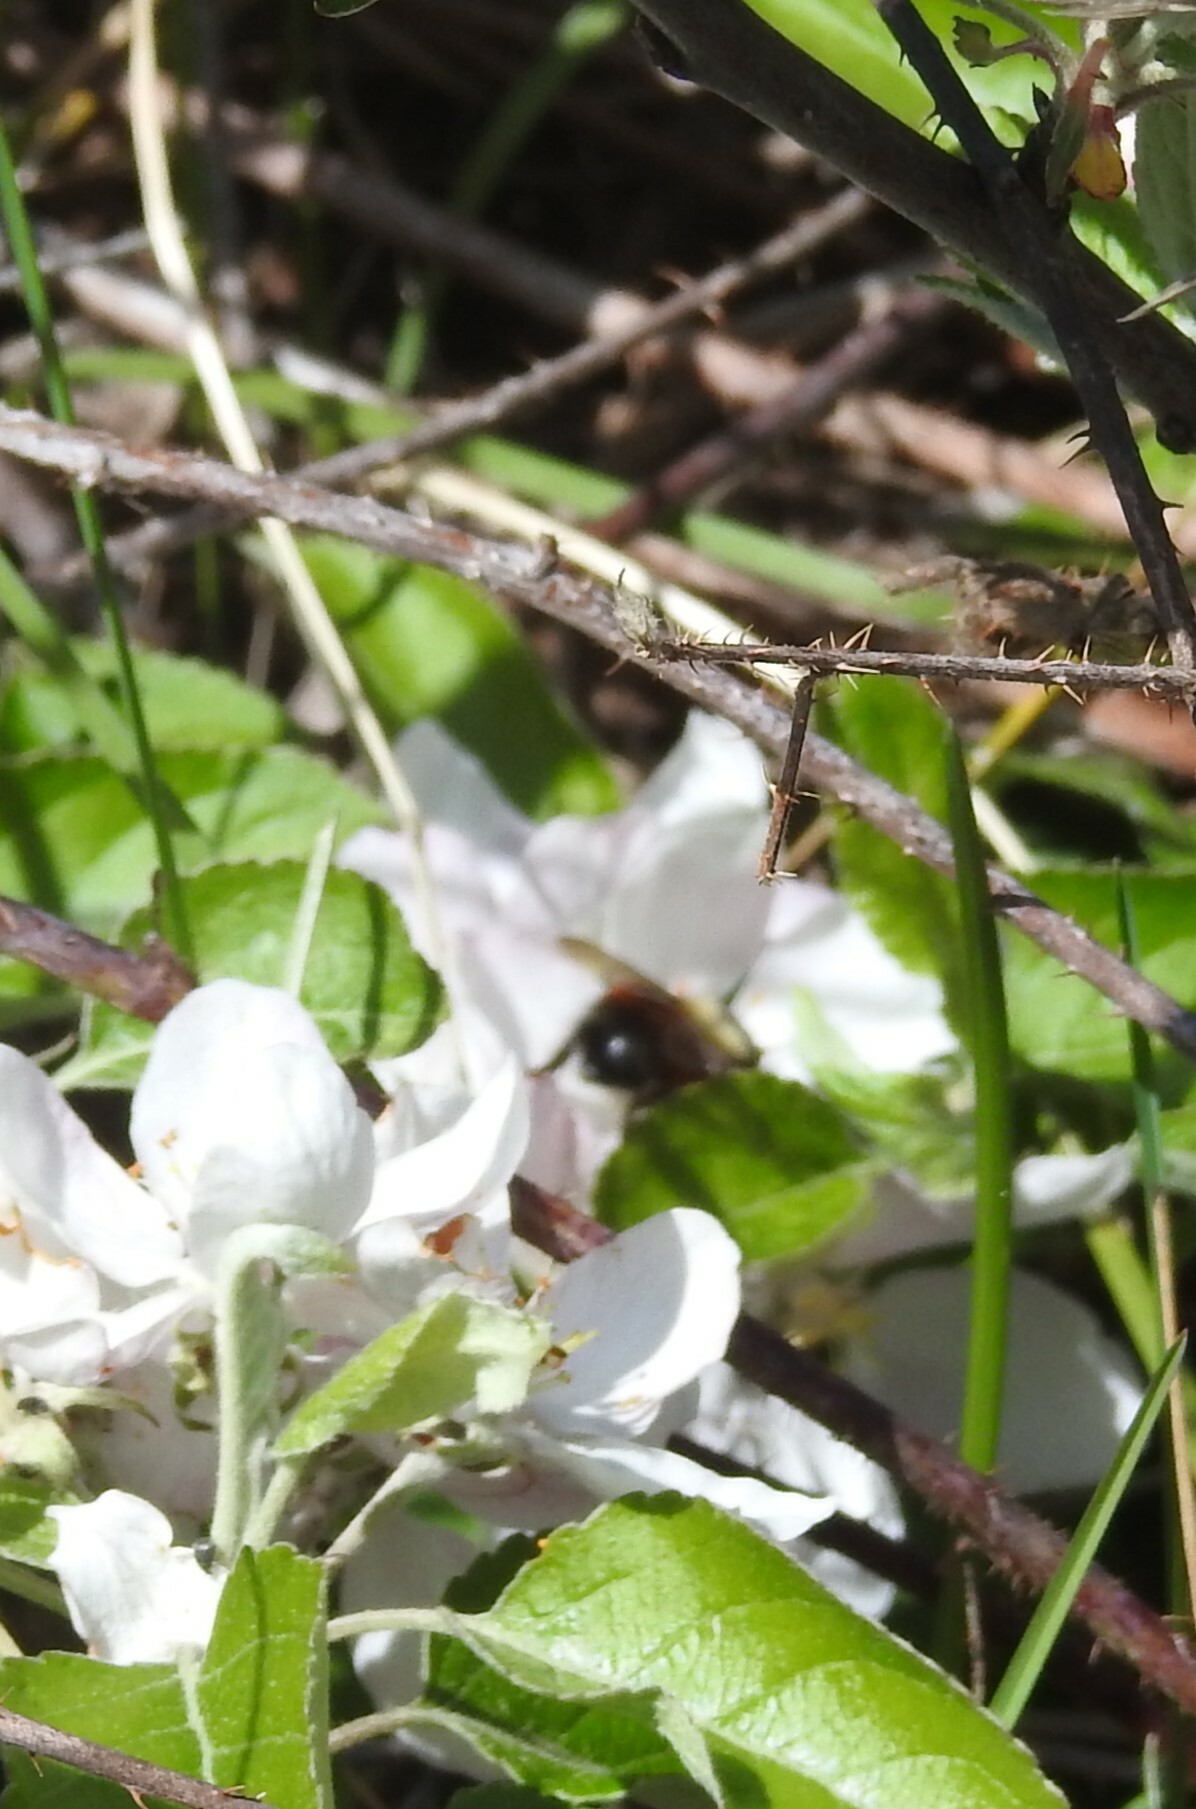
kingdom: Animalia
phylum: Arthropoda
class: Insecta
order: Hymenoptera
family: Apidae
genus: Bombus
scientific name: Bombus melanopygus
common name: Black tail bumble bee
